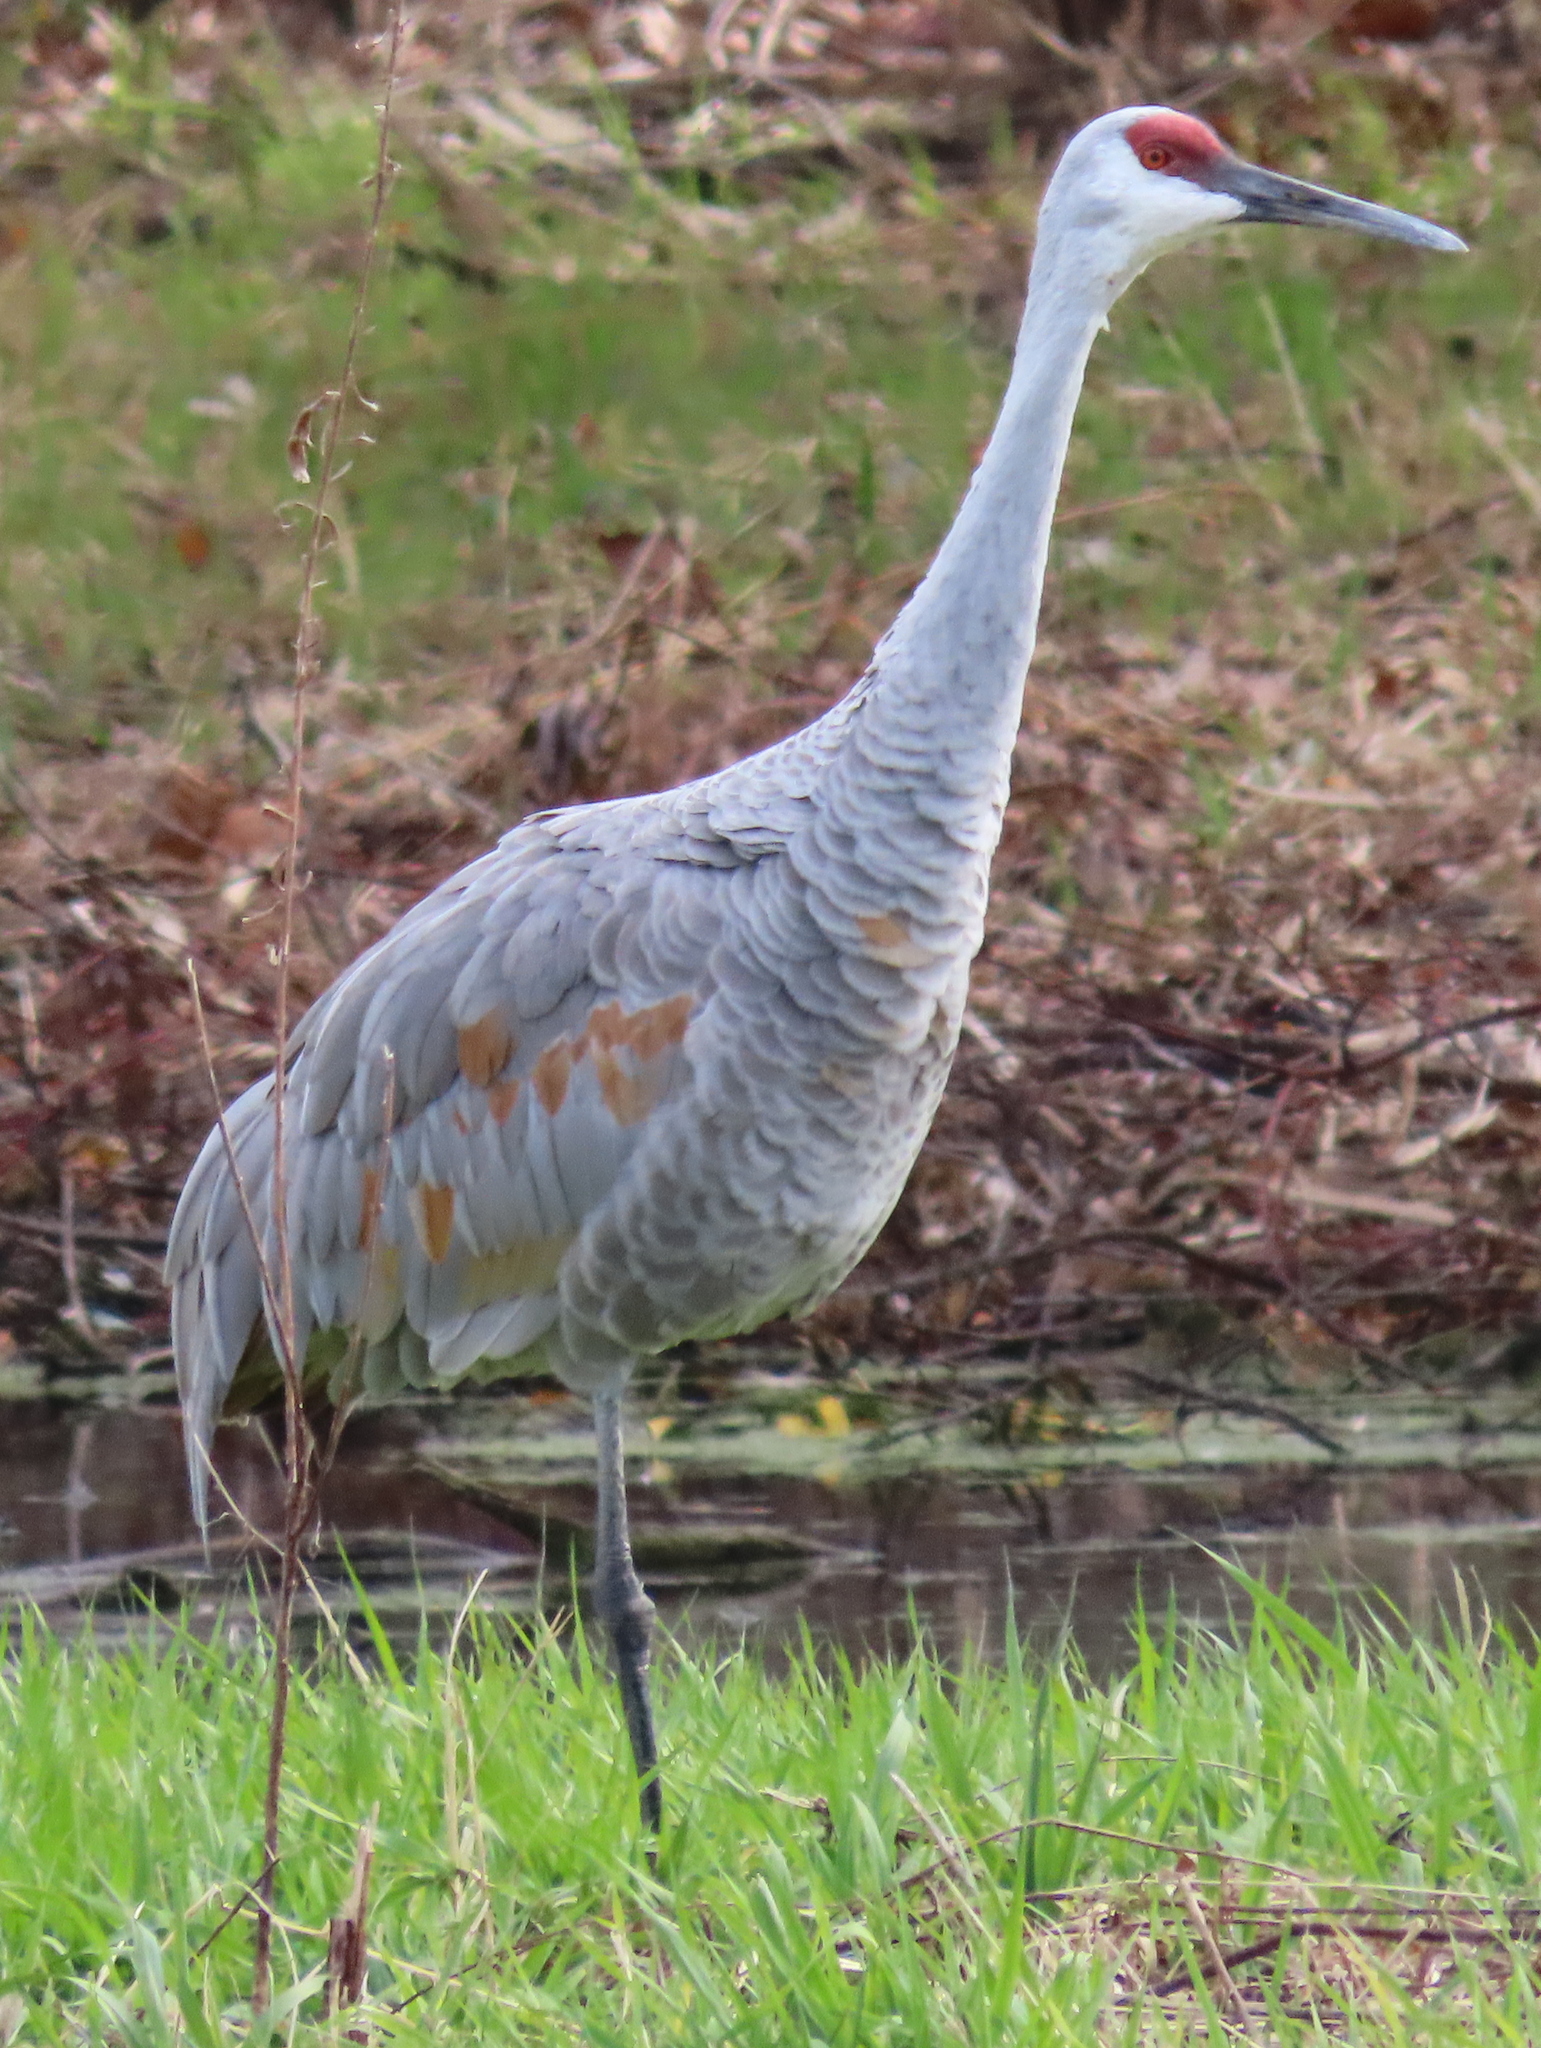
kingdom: Animalia
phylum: Chordata
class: Aves
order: Gruiformes
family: Gruidae
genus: Grus
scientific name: Grus canadensis
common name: Sandhill crane
